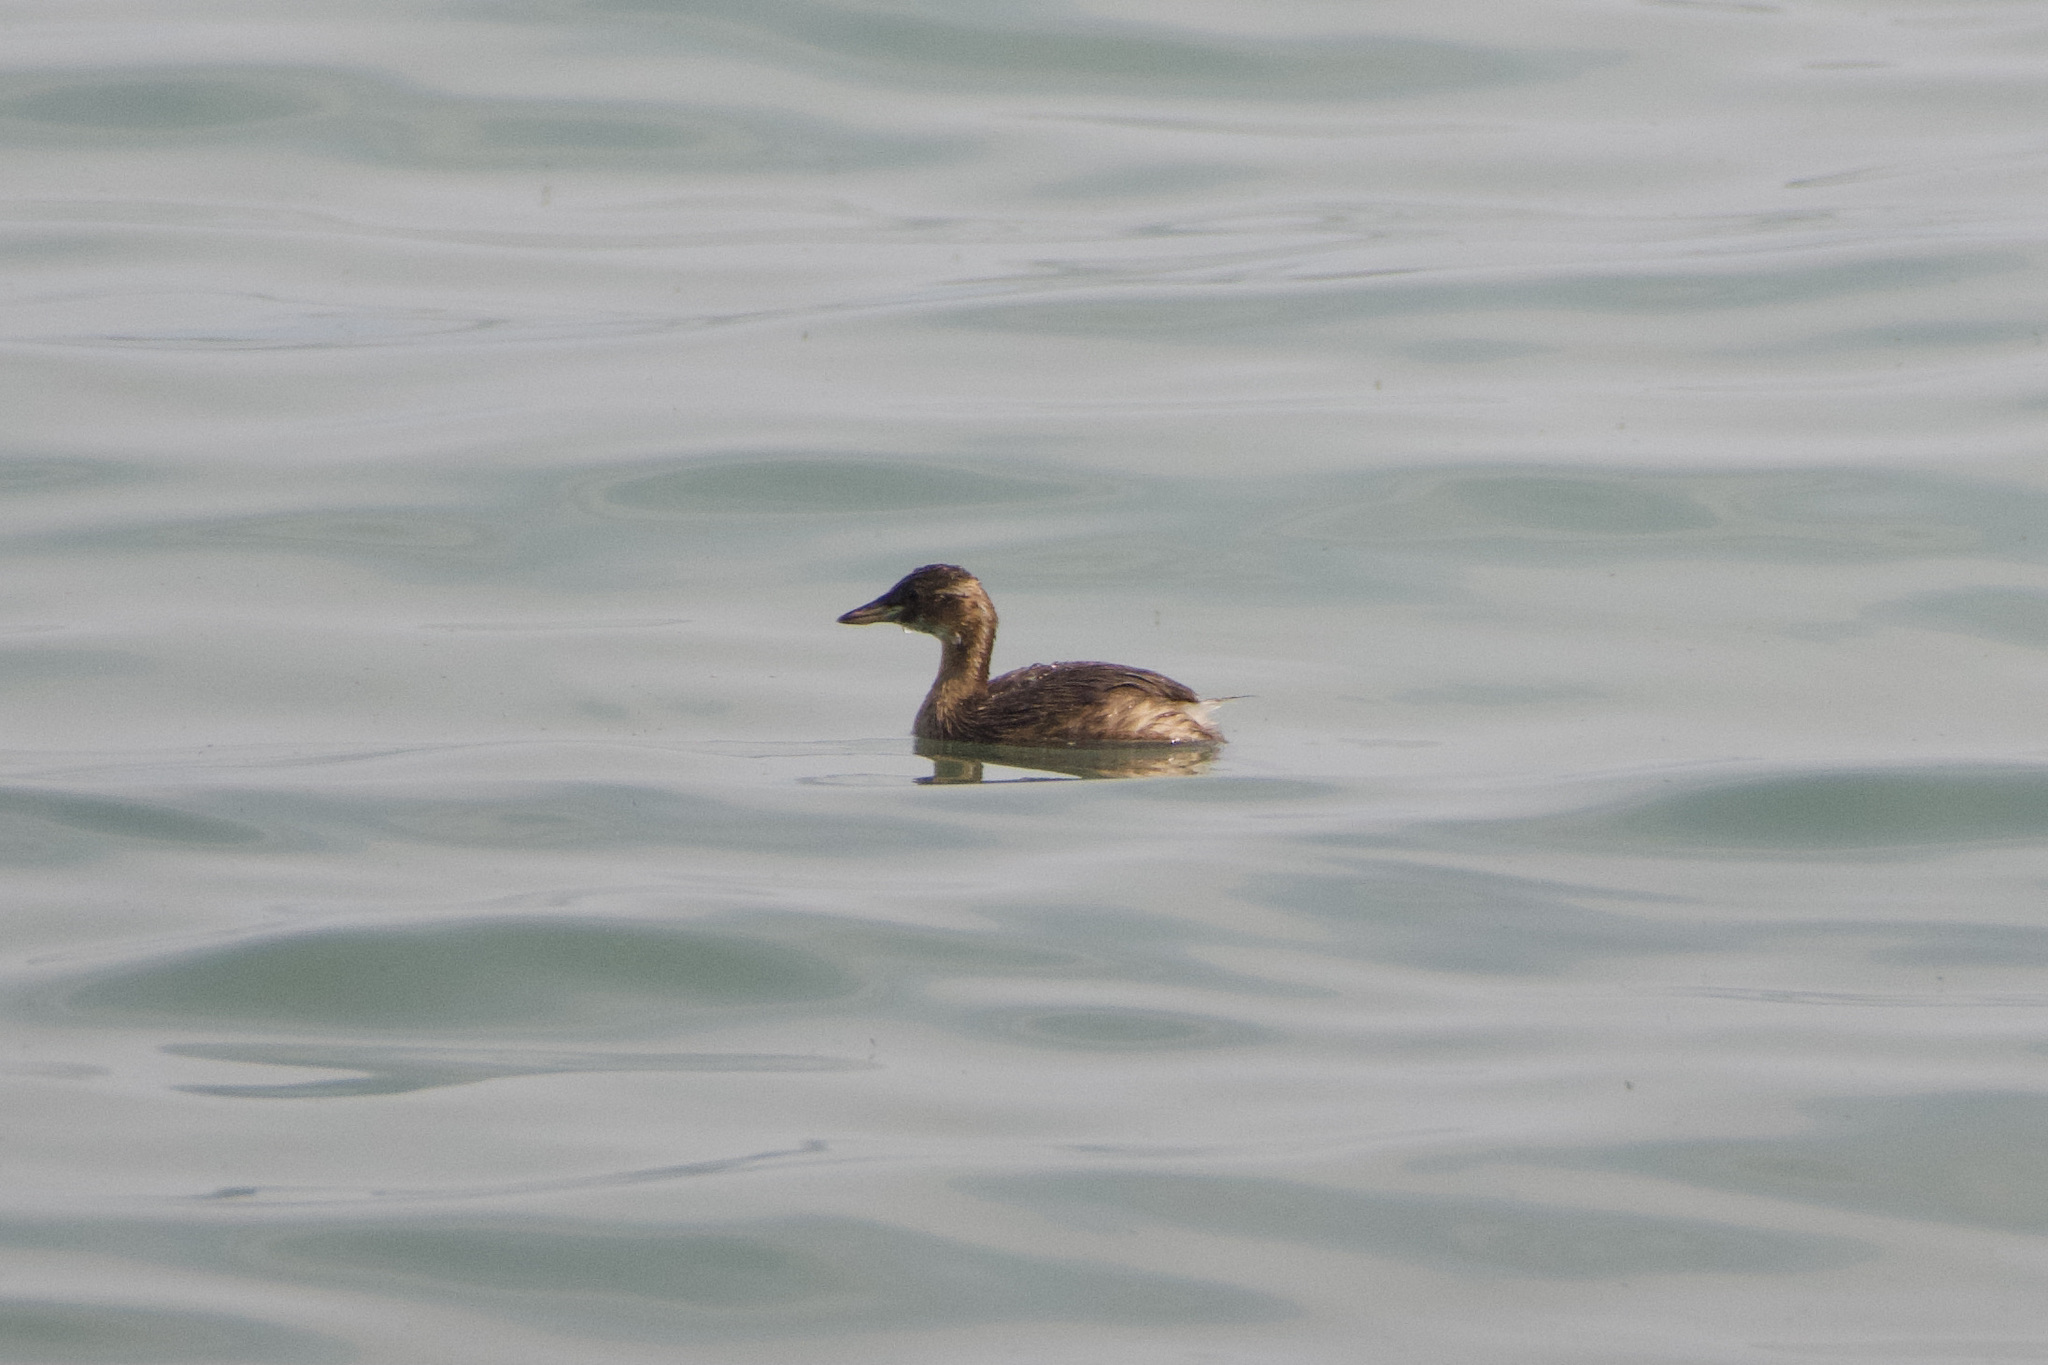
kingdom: Animalia
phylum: Chordata
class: Aves
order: Podicipediformes
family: Podicipedidae
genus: Tachybaptus
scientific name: Tachybaptus ruficollis
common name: Little grebe
